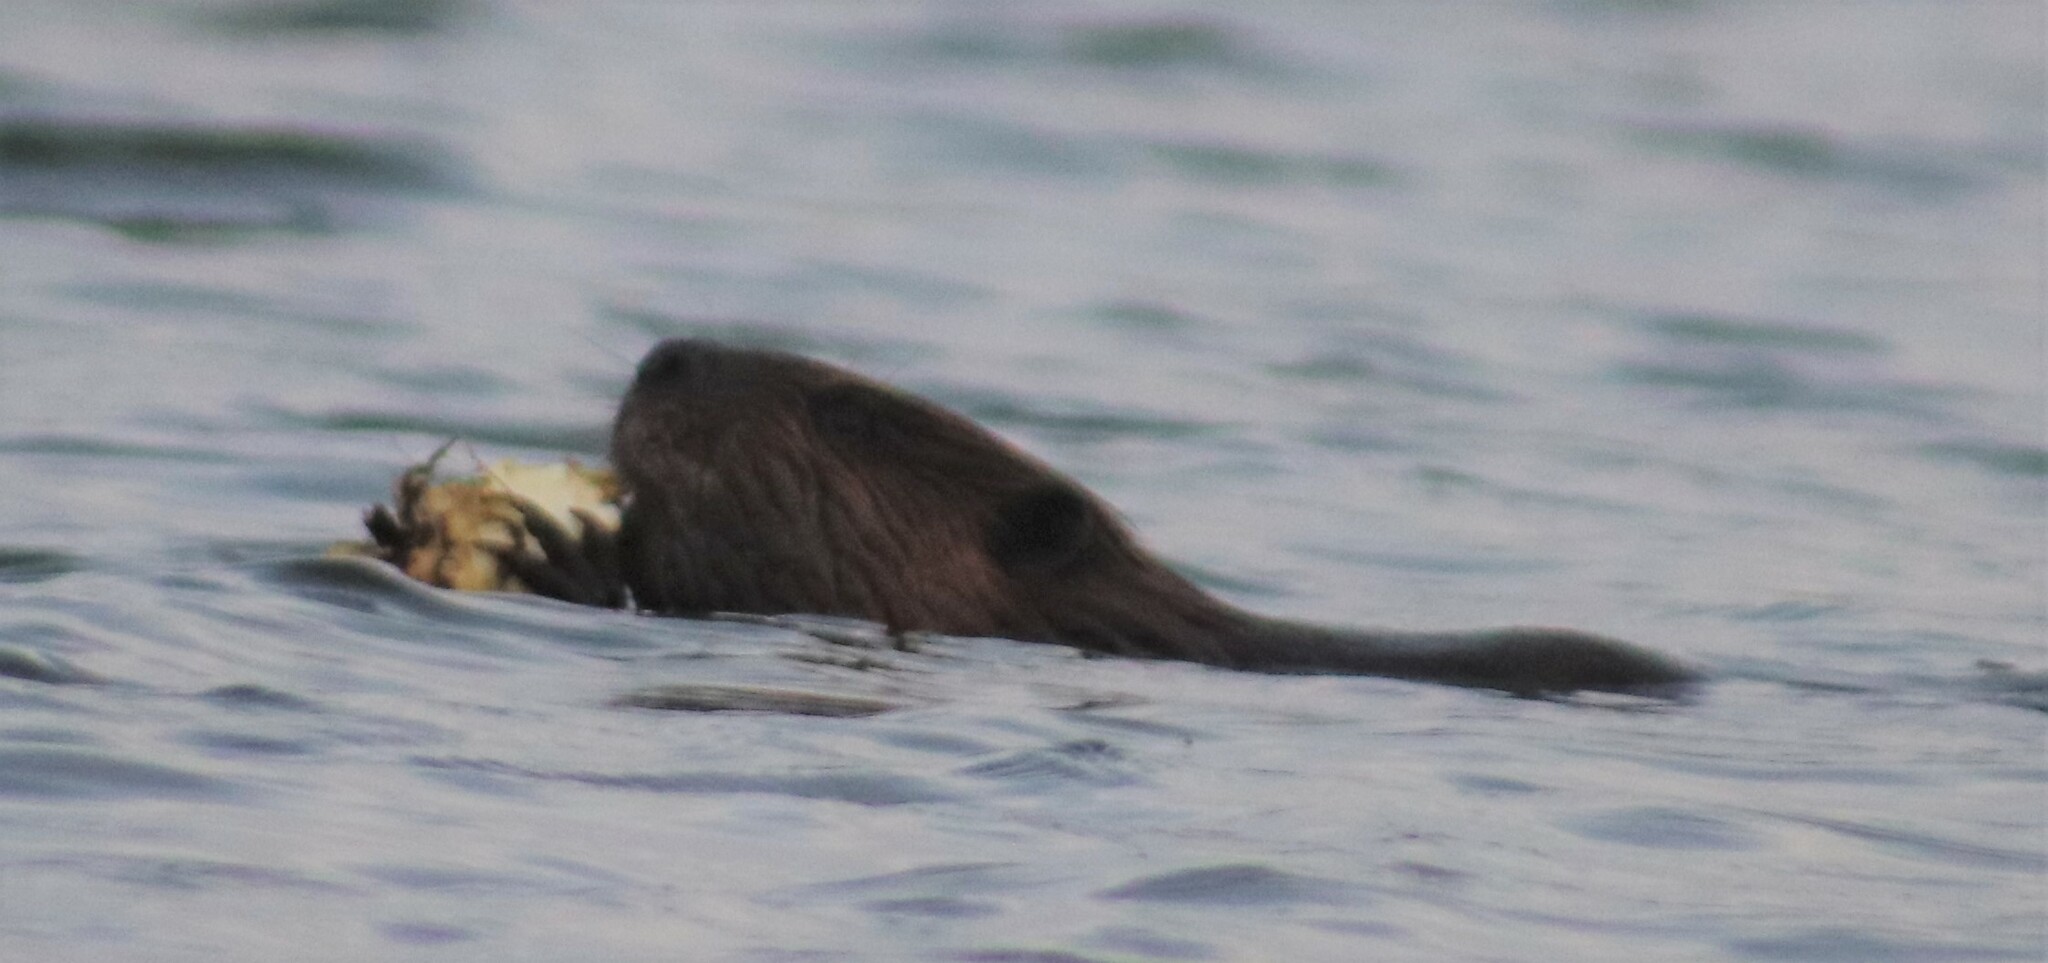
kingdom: Animalia
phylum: Chordata
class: Mammalia
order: Rodentia
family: Castoridae
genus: Castor
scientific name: Castor canadensis
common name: American beaver
